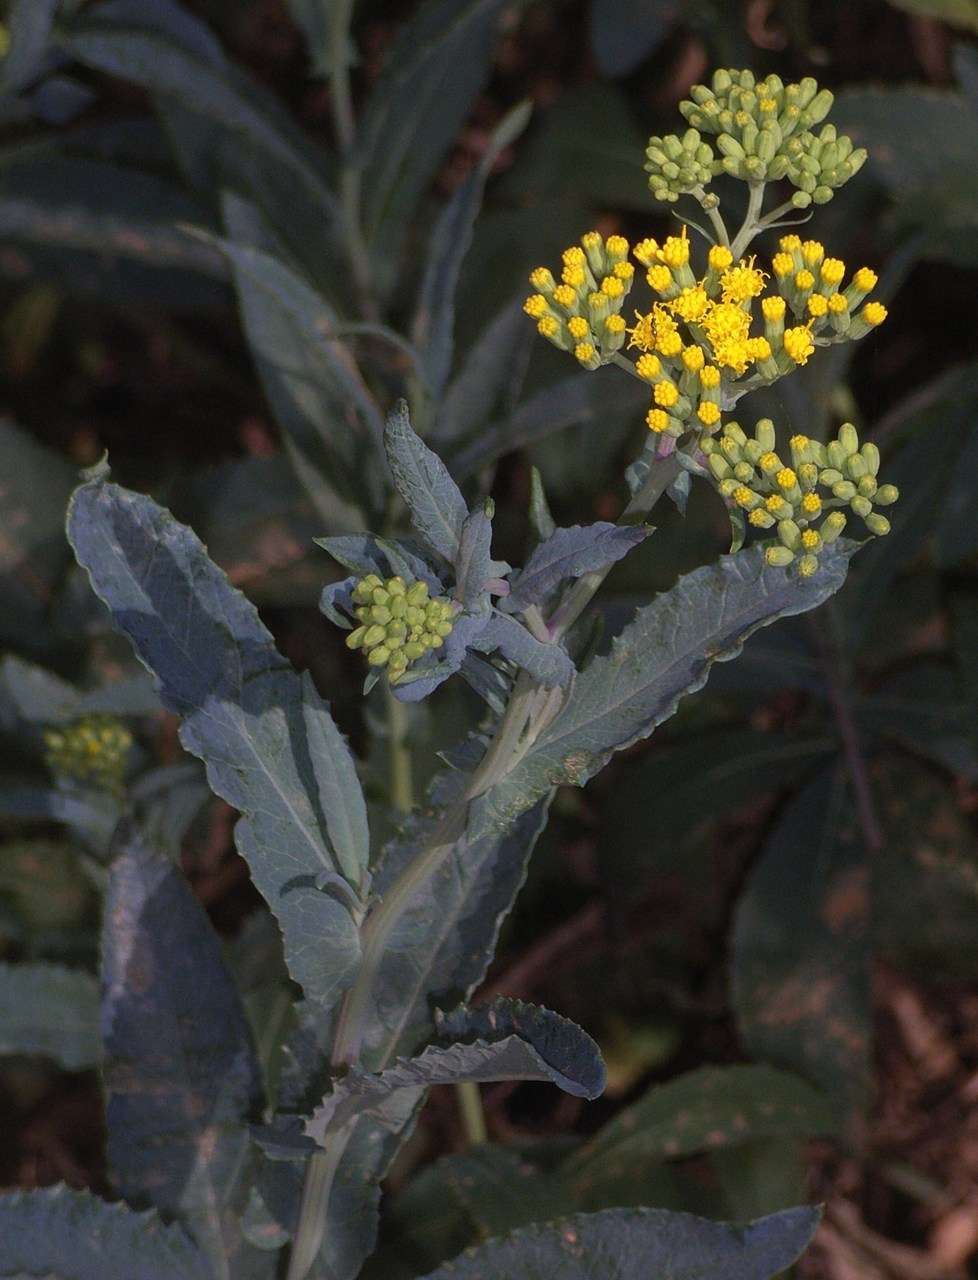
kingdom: Plantae
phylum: Tracheophyta
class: Magnoliopsida
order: Asterales
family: Asteraceae
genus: Senecio
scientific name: Senecio odoratus
